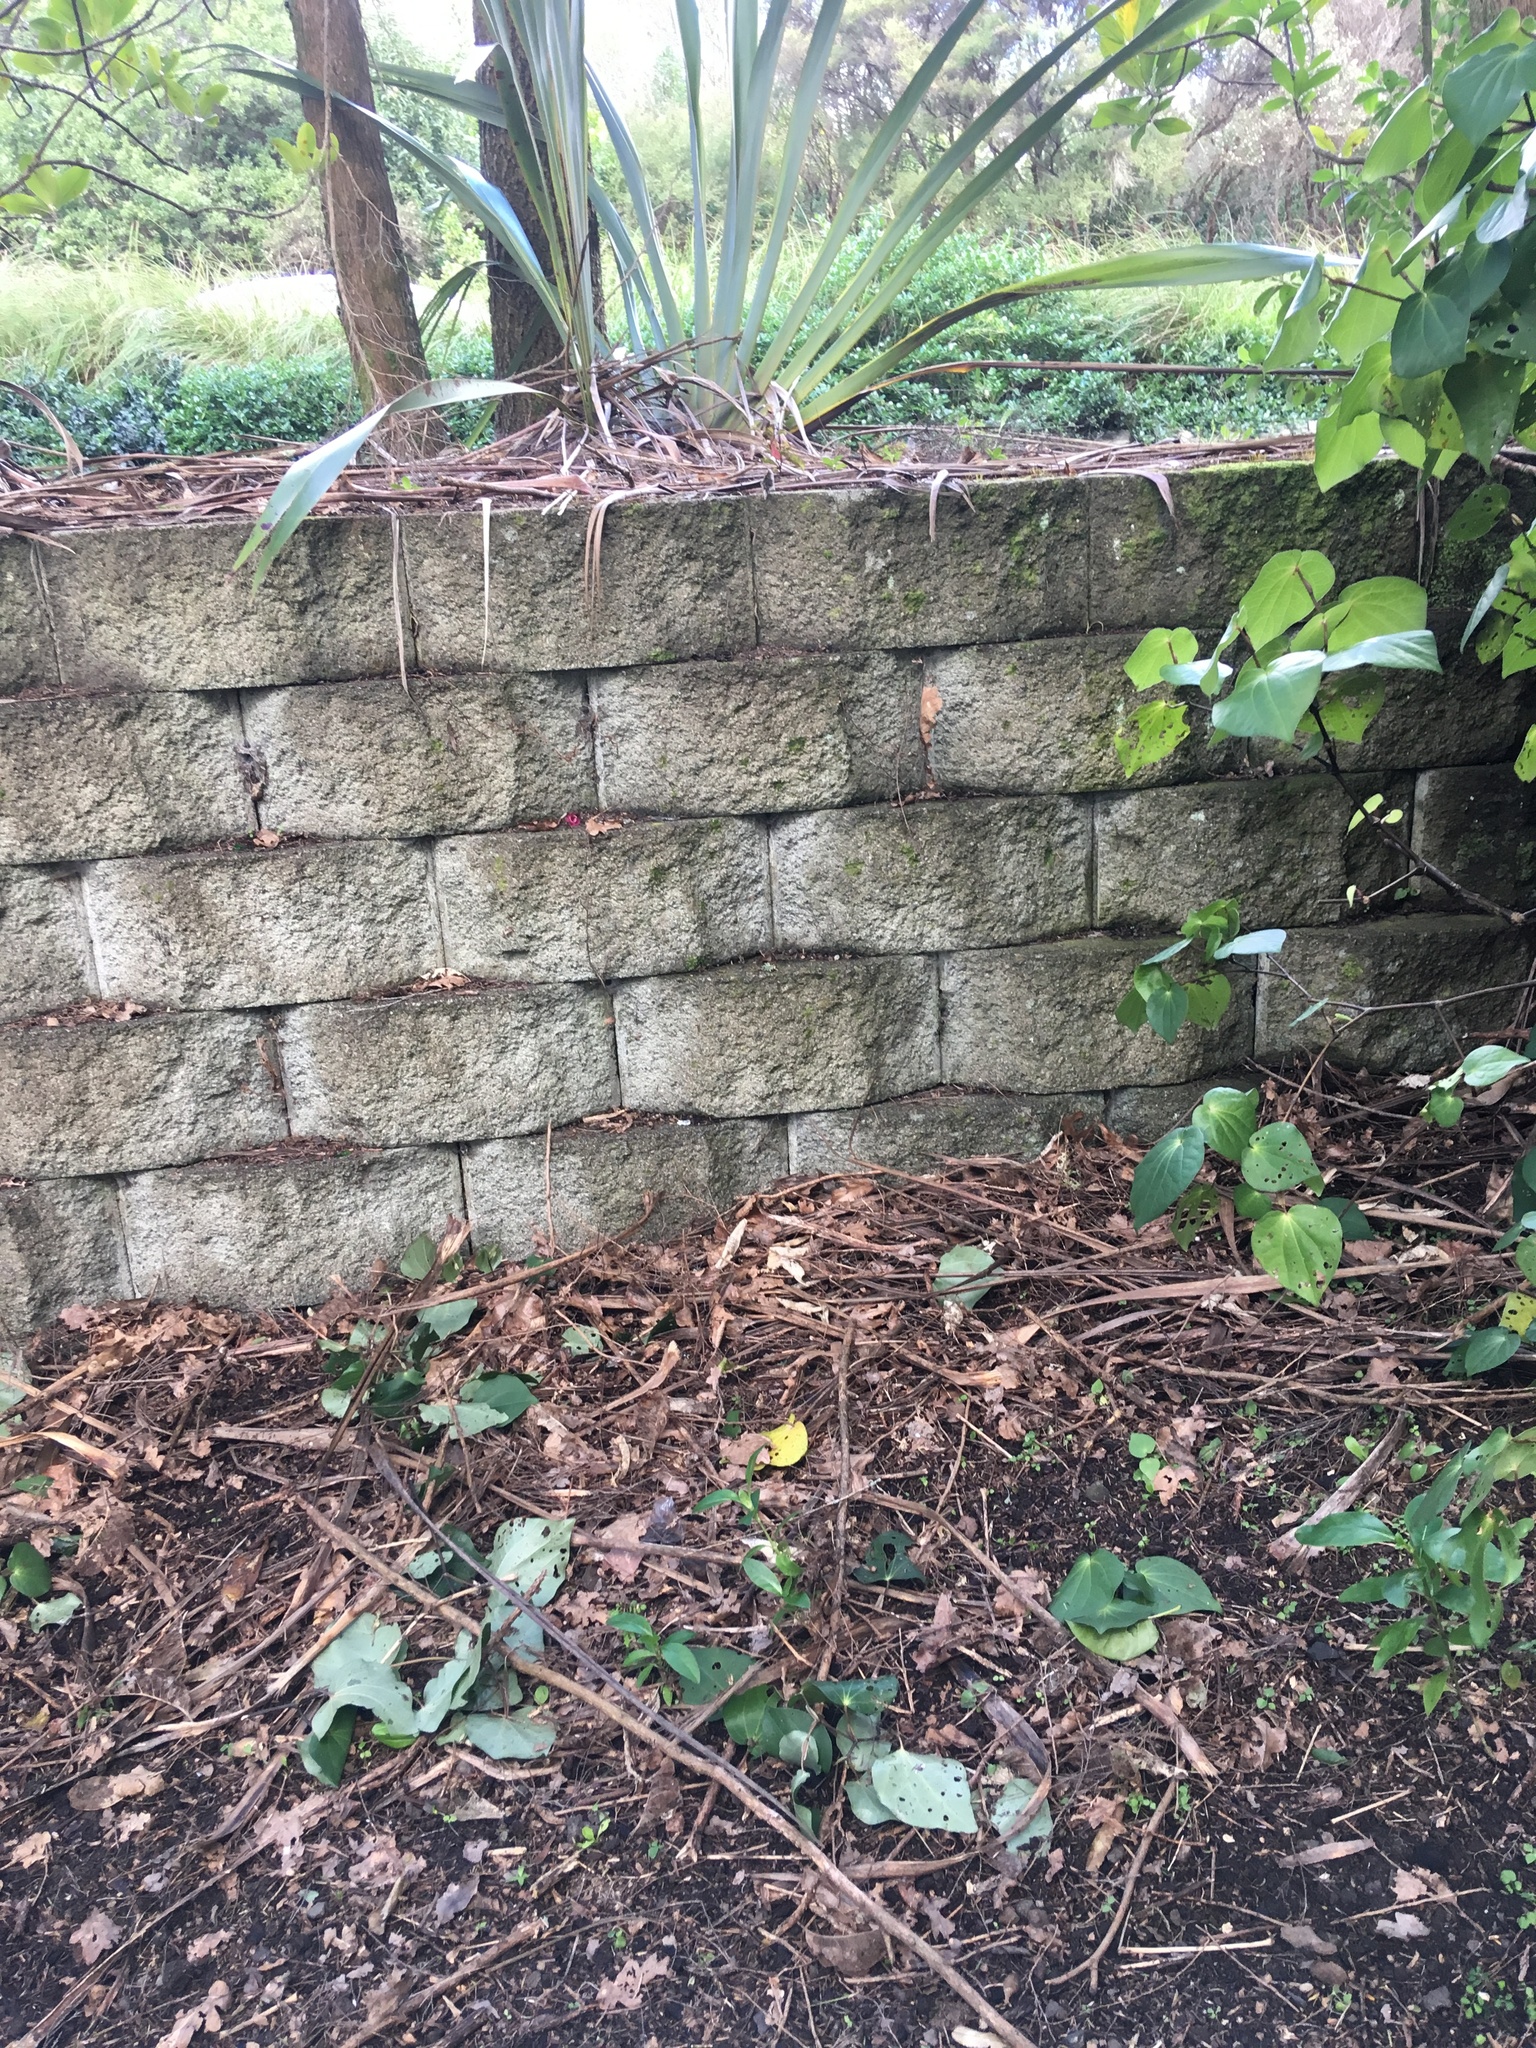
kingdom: Plantae
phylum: Tracheophyta
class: Liliopsida
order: Asparagales
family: Asphodelaceae
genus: Phormium
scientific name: Phormium tenax
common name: New zealand flax
